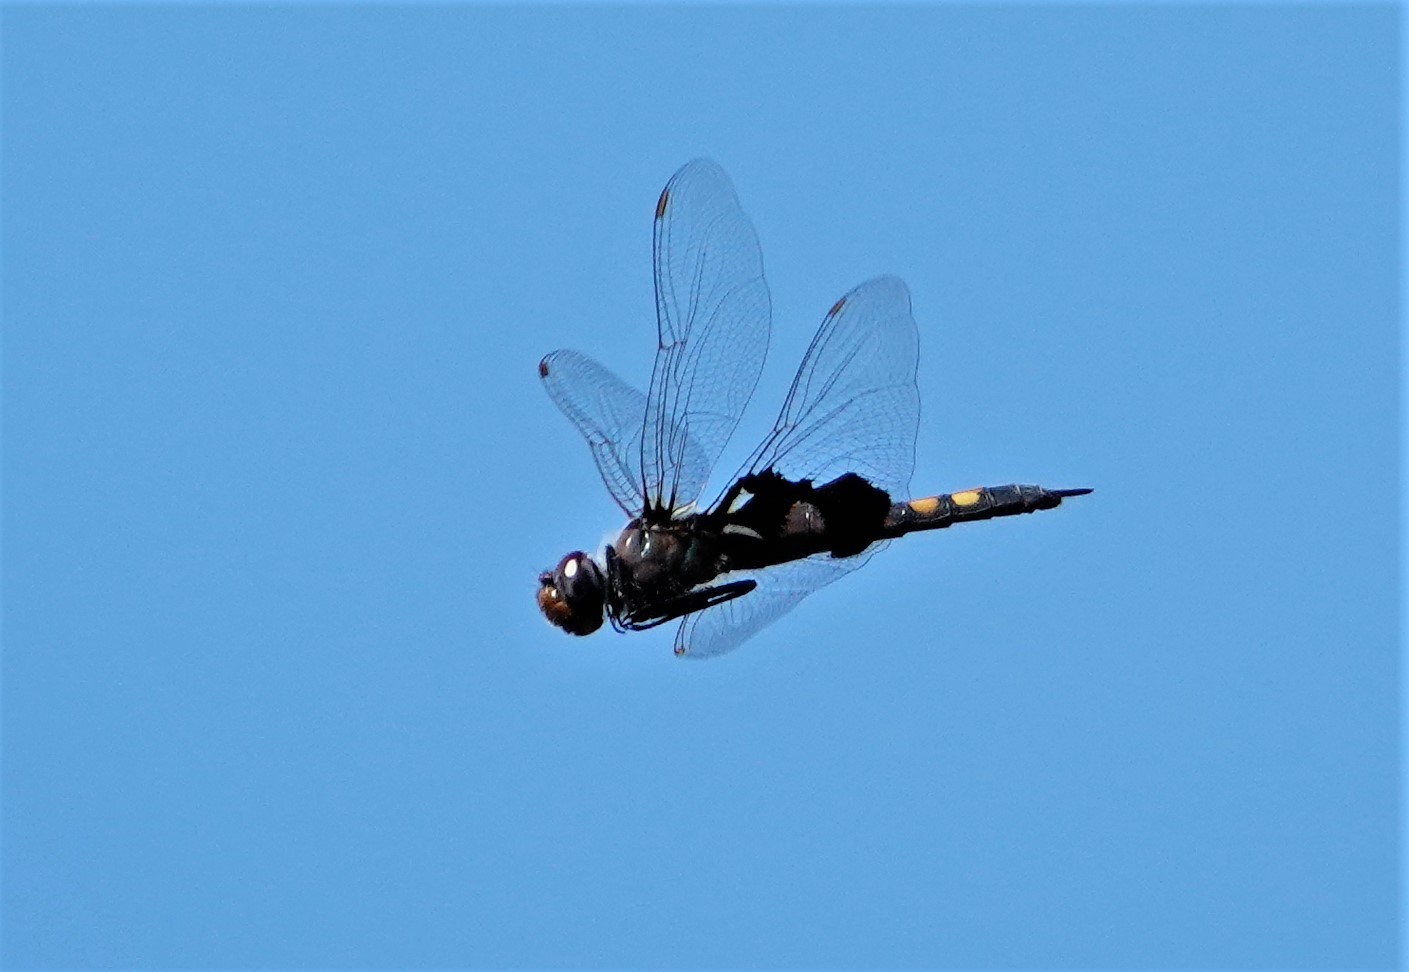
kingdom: Animalia
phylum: Arthropoda
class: Insecta
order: Odonata
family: Libellulidae
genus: Tramea
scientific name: Tramea lacerata
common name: Black saddlebags
